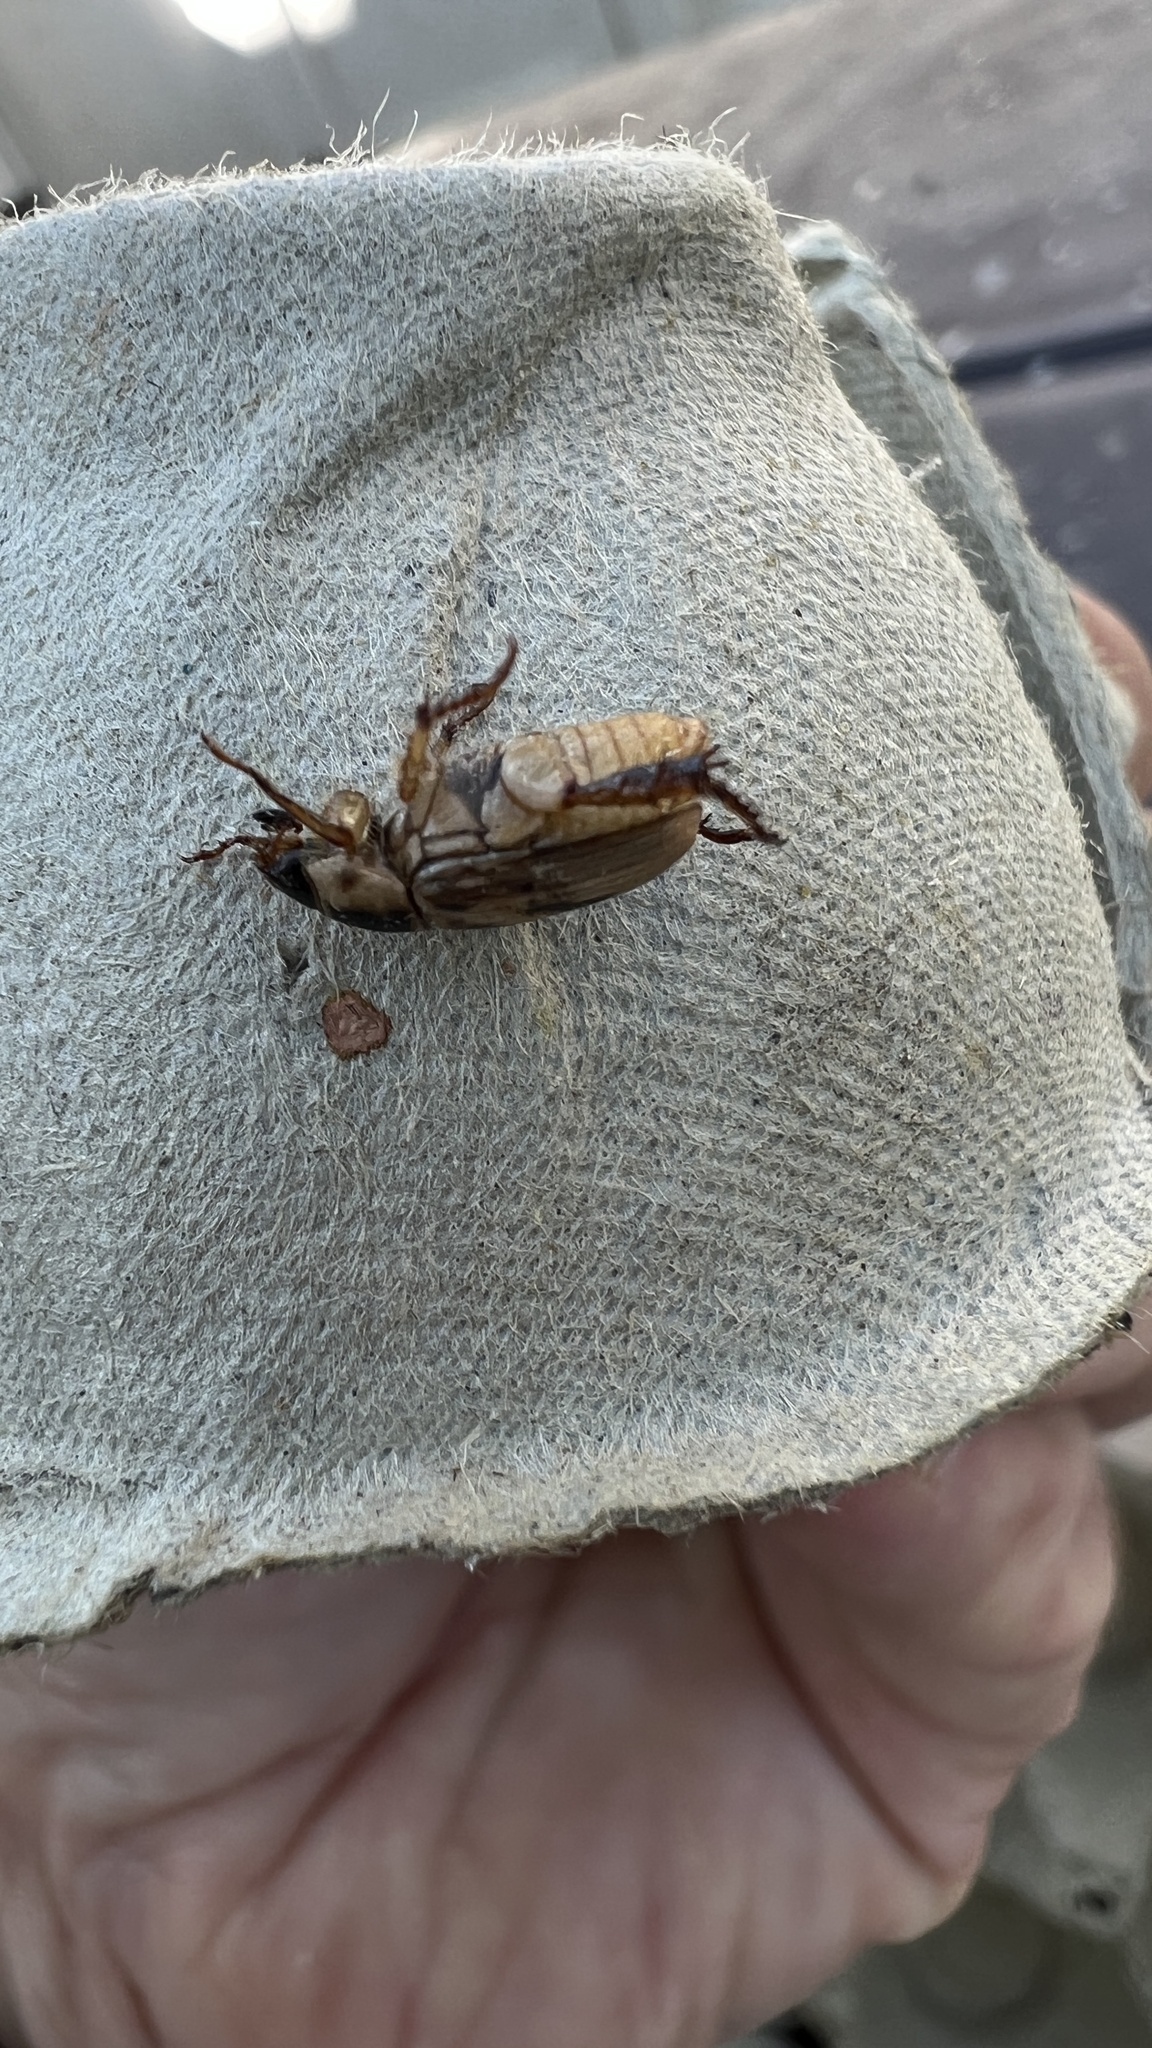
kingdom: Animalia
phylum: Arthropoda
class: Insecta
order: Coleoptera
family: Scarabaeidae
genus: Exomala
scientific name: Exomala orientalis
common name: Oriental beetle
